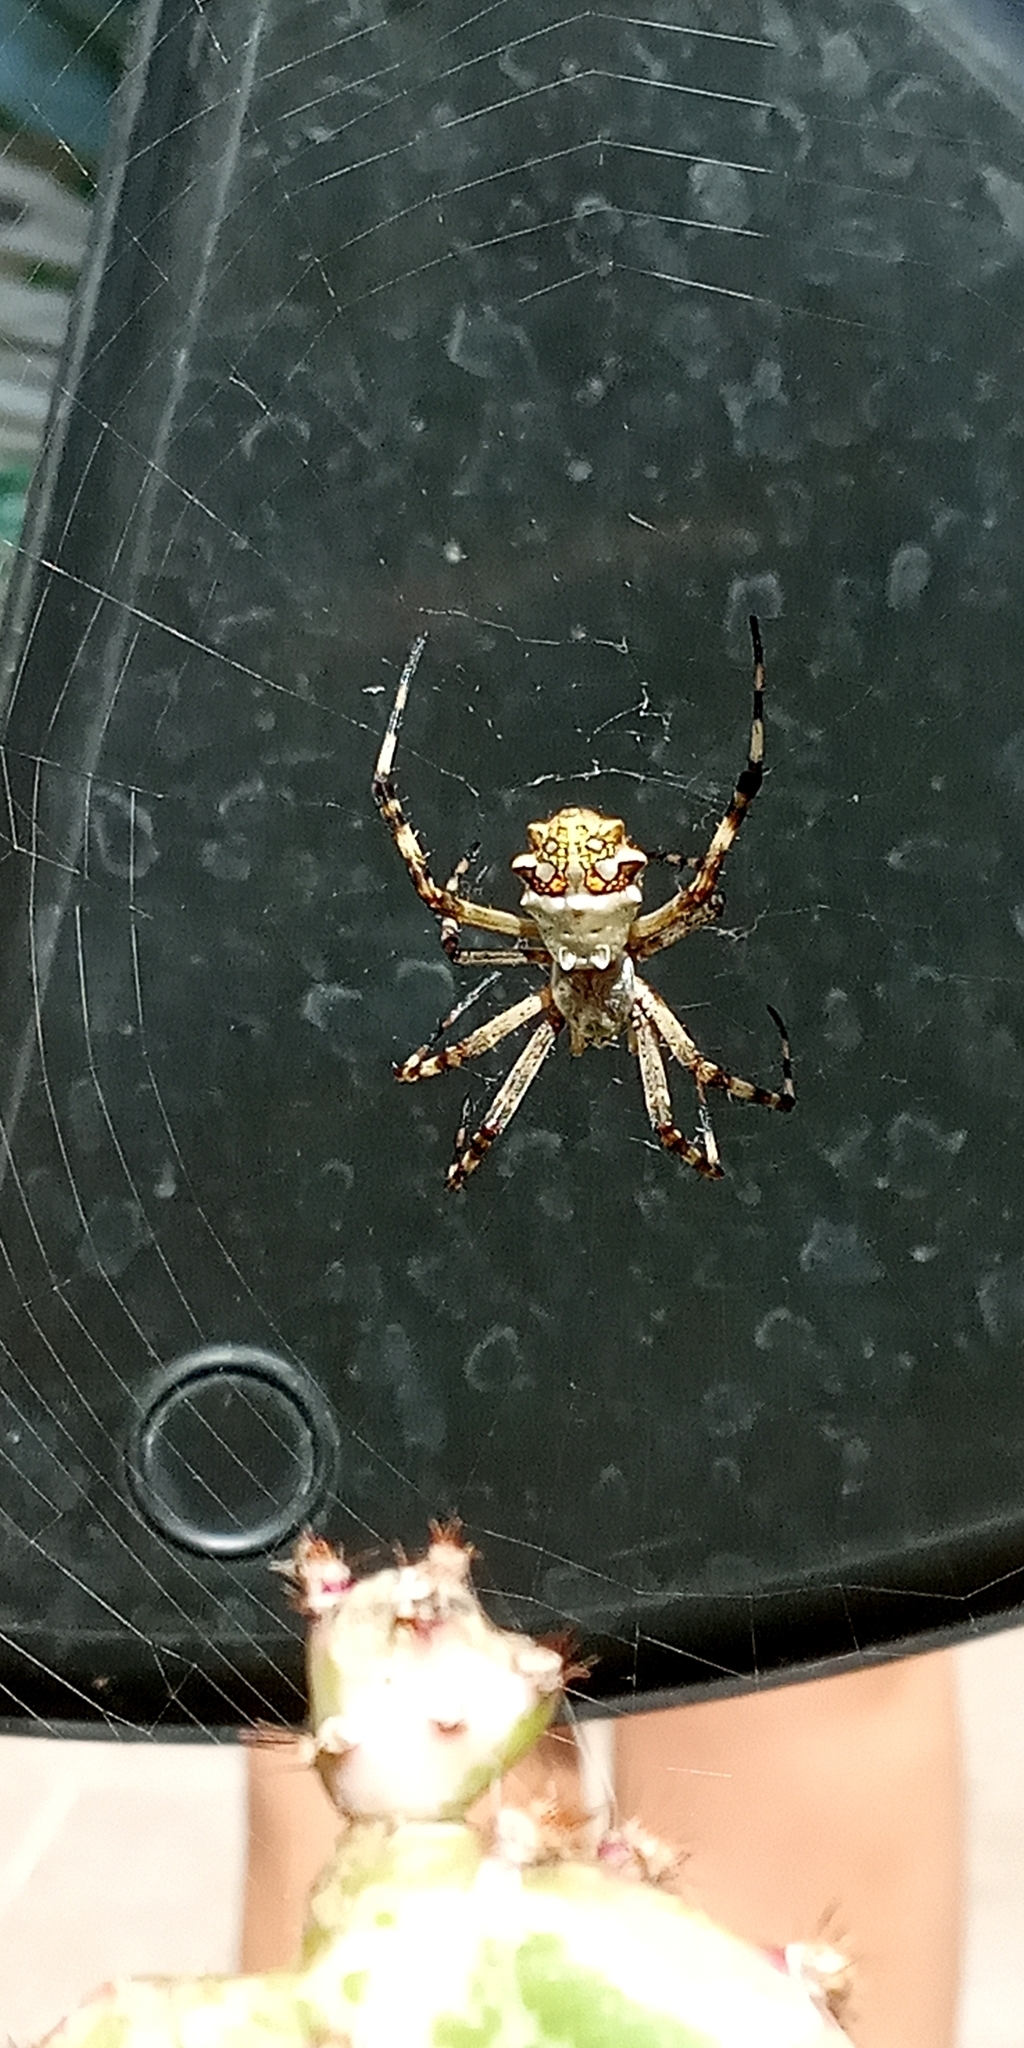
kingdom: Animalia
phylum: Arthropoda
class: Arachnida
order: Araneae
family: Araneidae
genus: Argiope
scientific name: Argiope argentata
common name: Orb weavers
